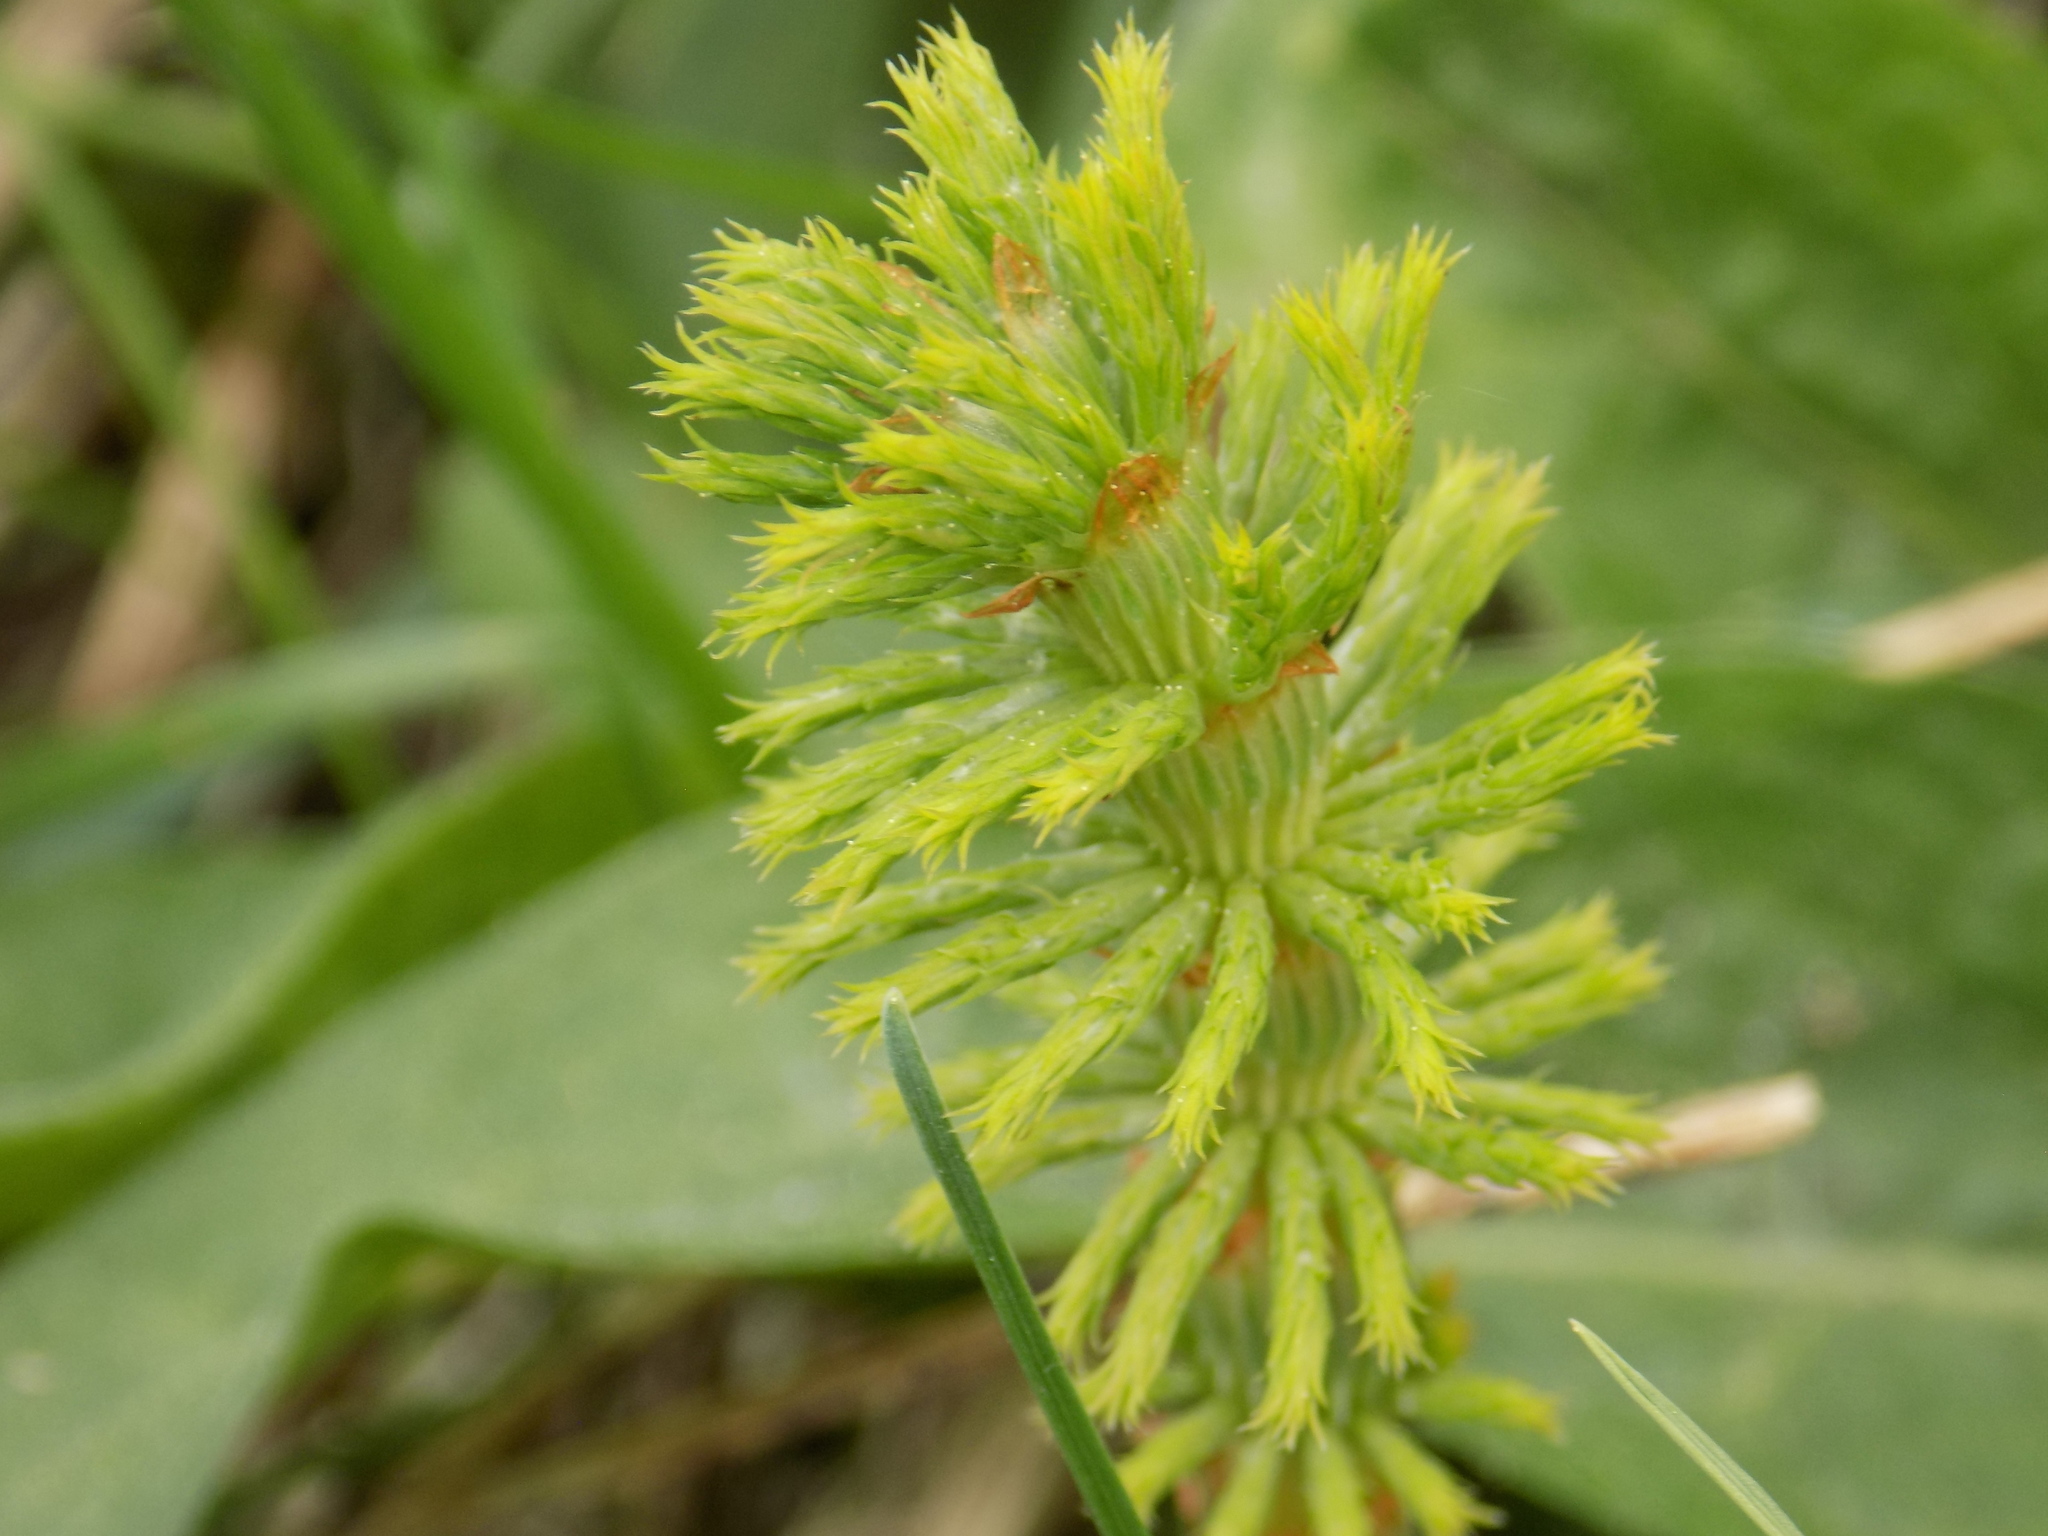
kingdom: Plantae
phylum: Tracheophyta
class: Polypodiopsida
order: Equisetales
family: Equisetaceae
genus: Equisetum
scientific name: Equisetum sylvaticum
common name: Wood horsetail
